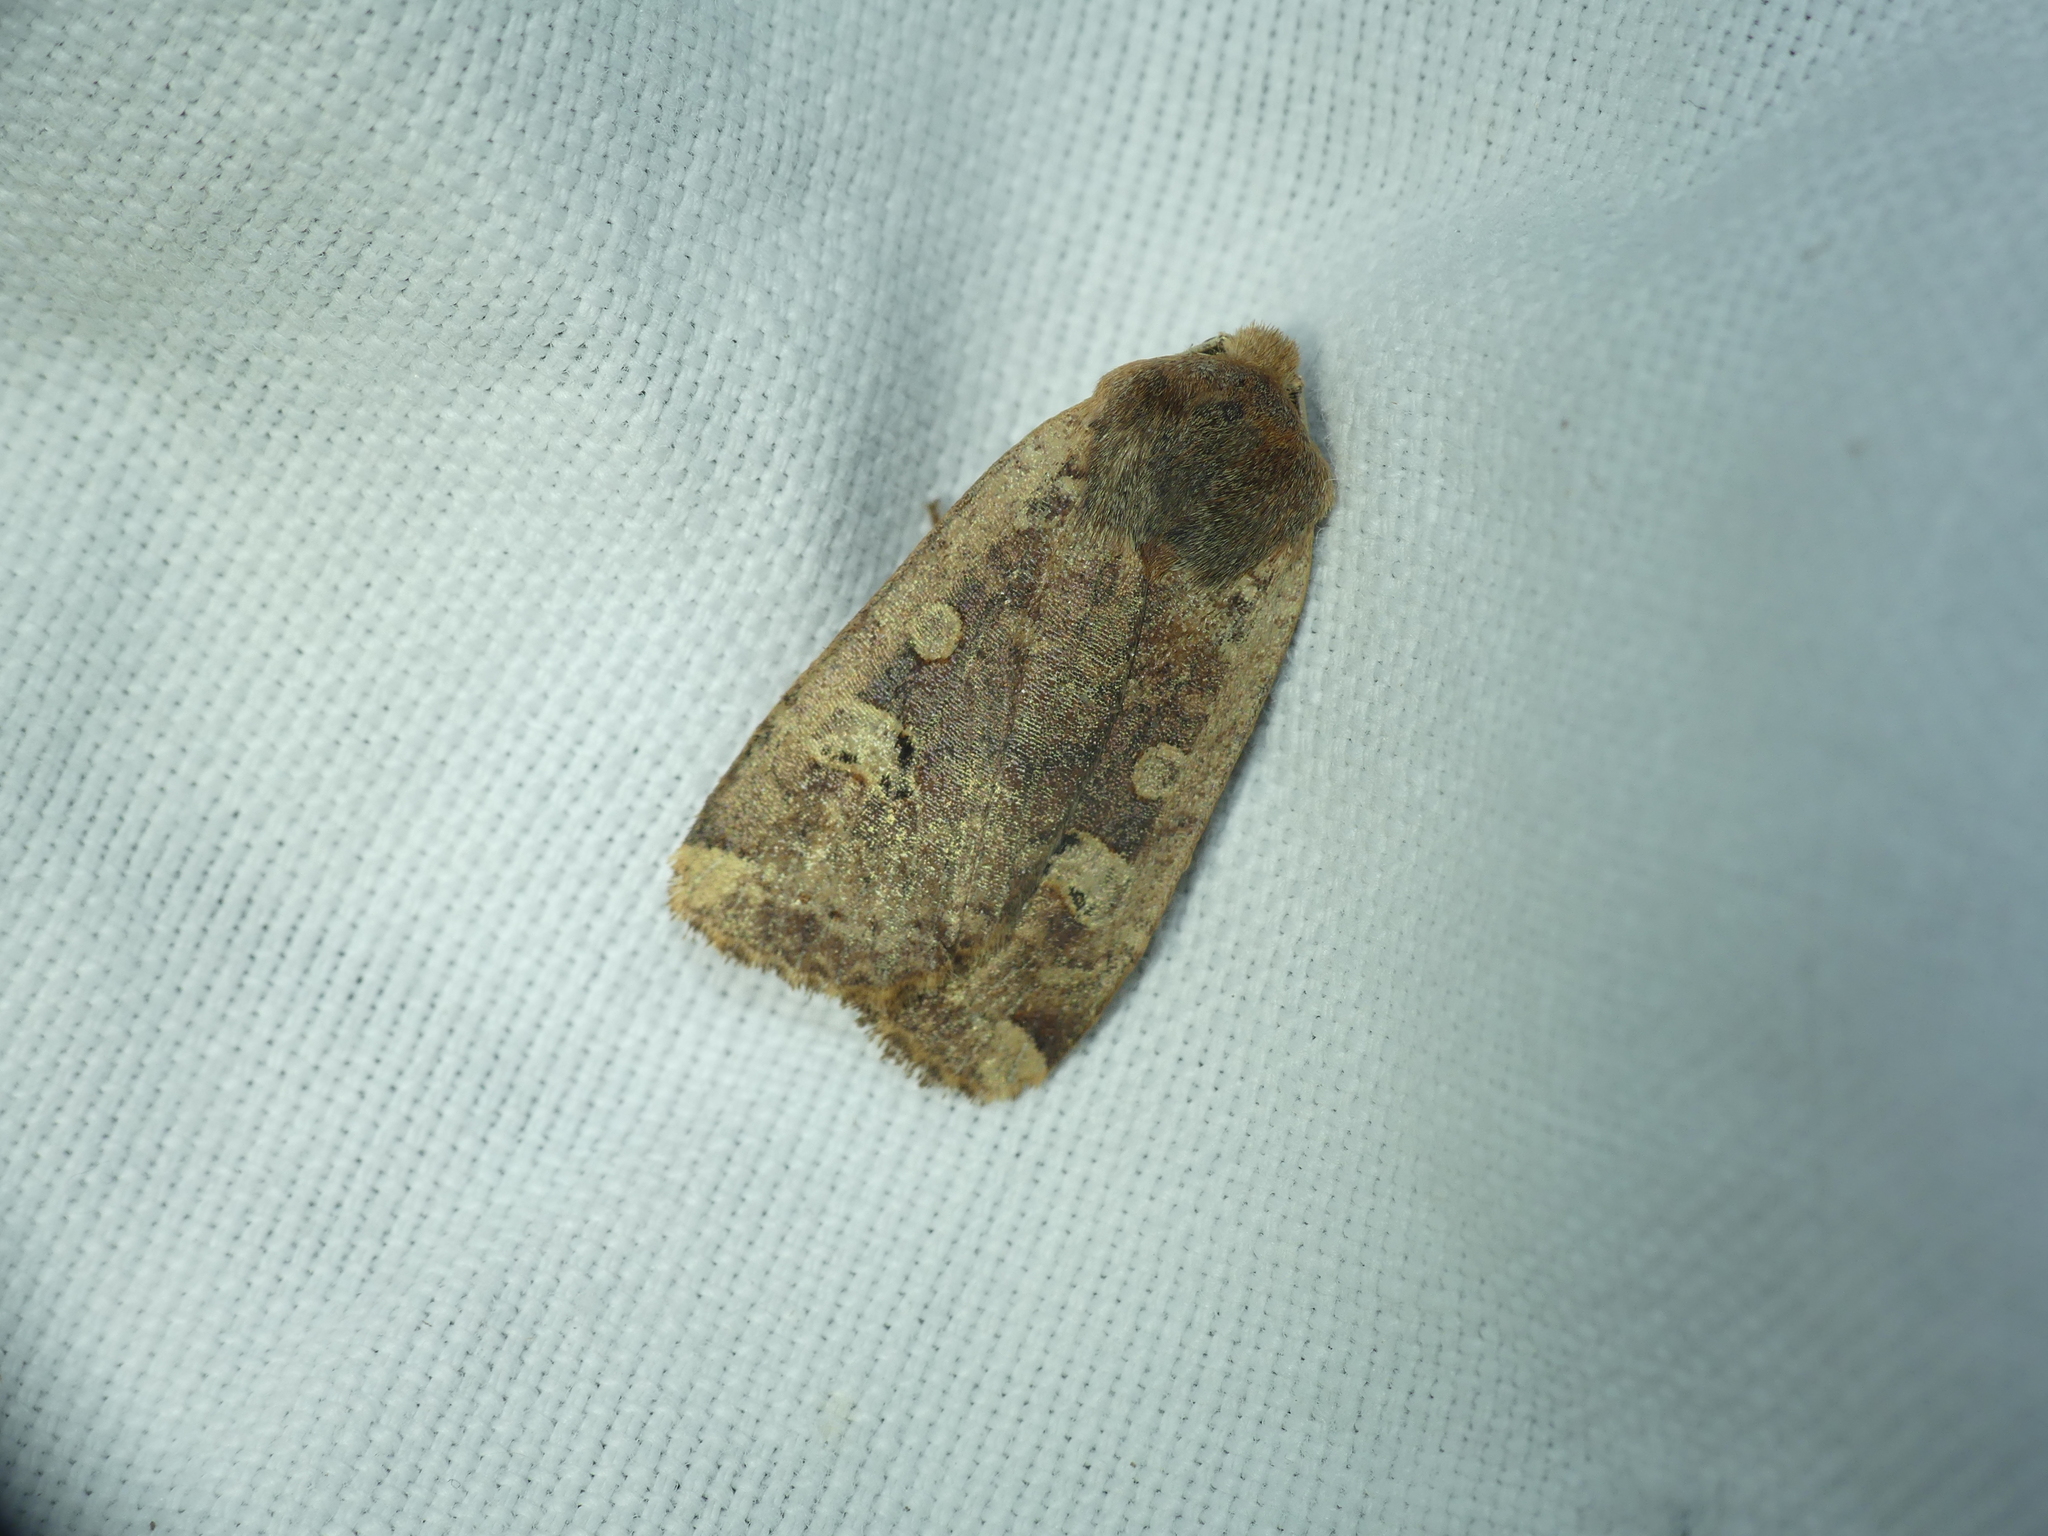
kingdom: Animalia
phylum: Arthropoda
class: Insecta
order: Lepidoptera
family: Noctuidae
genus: Conistra
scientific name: Conistra erythrocephala
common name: Red-headed chestnut
